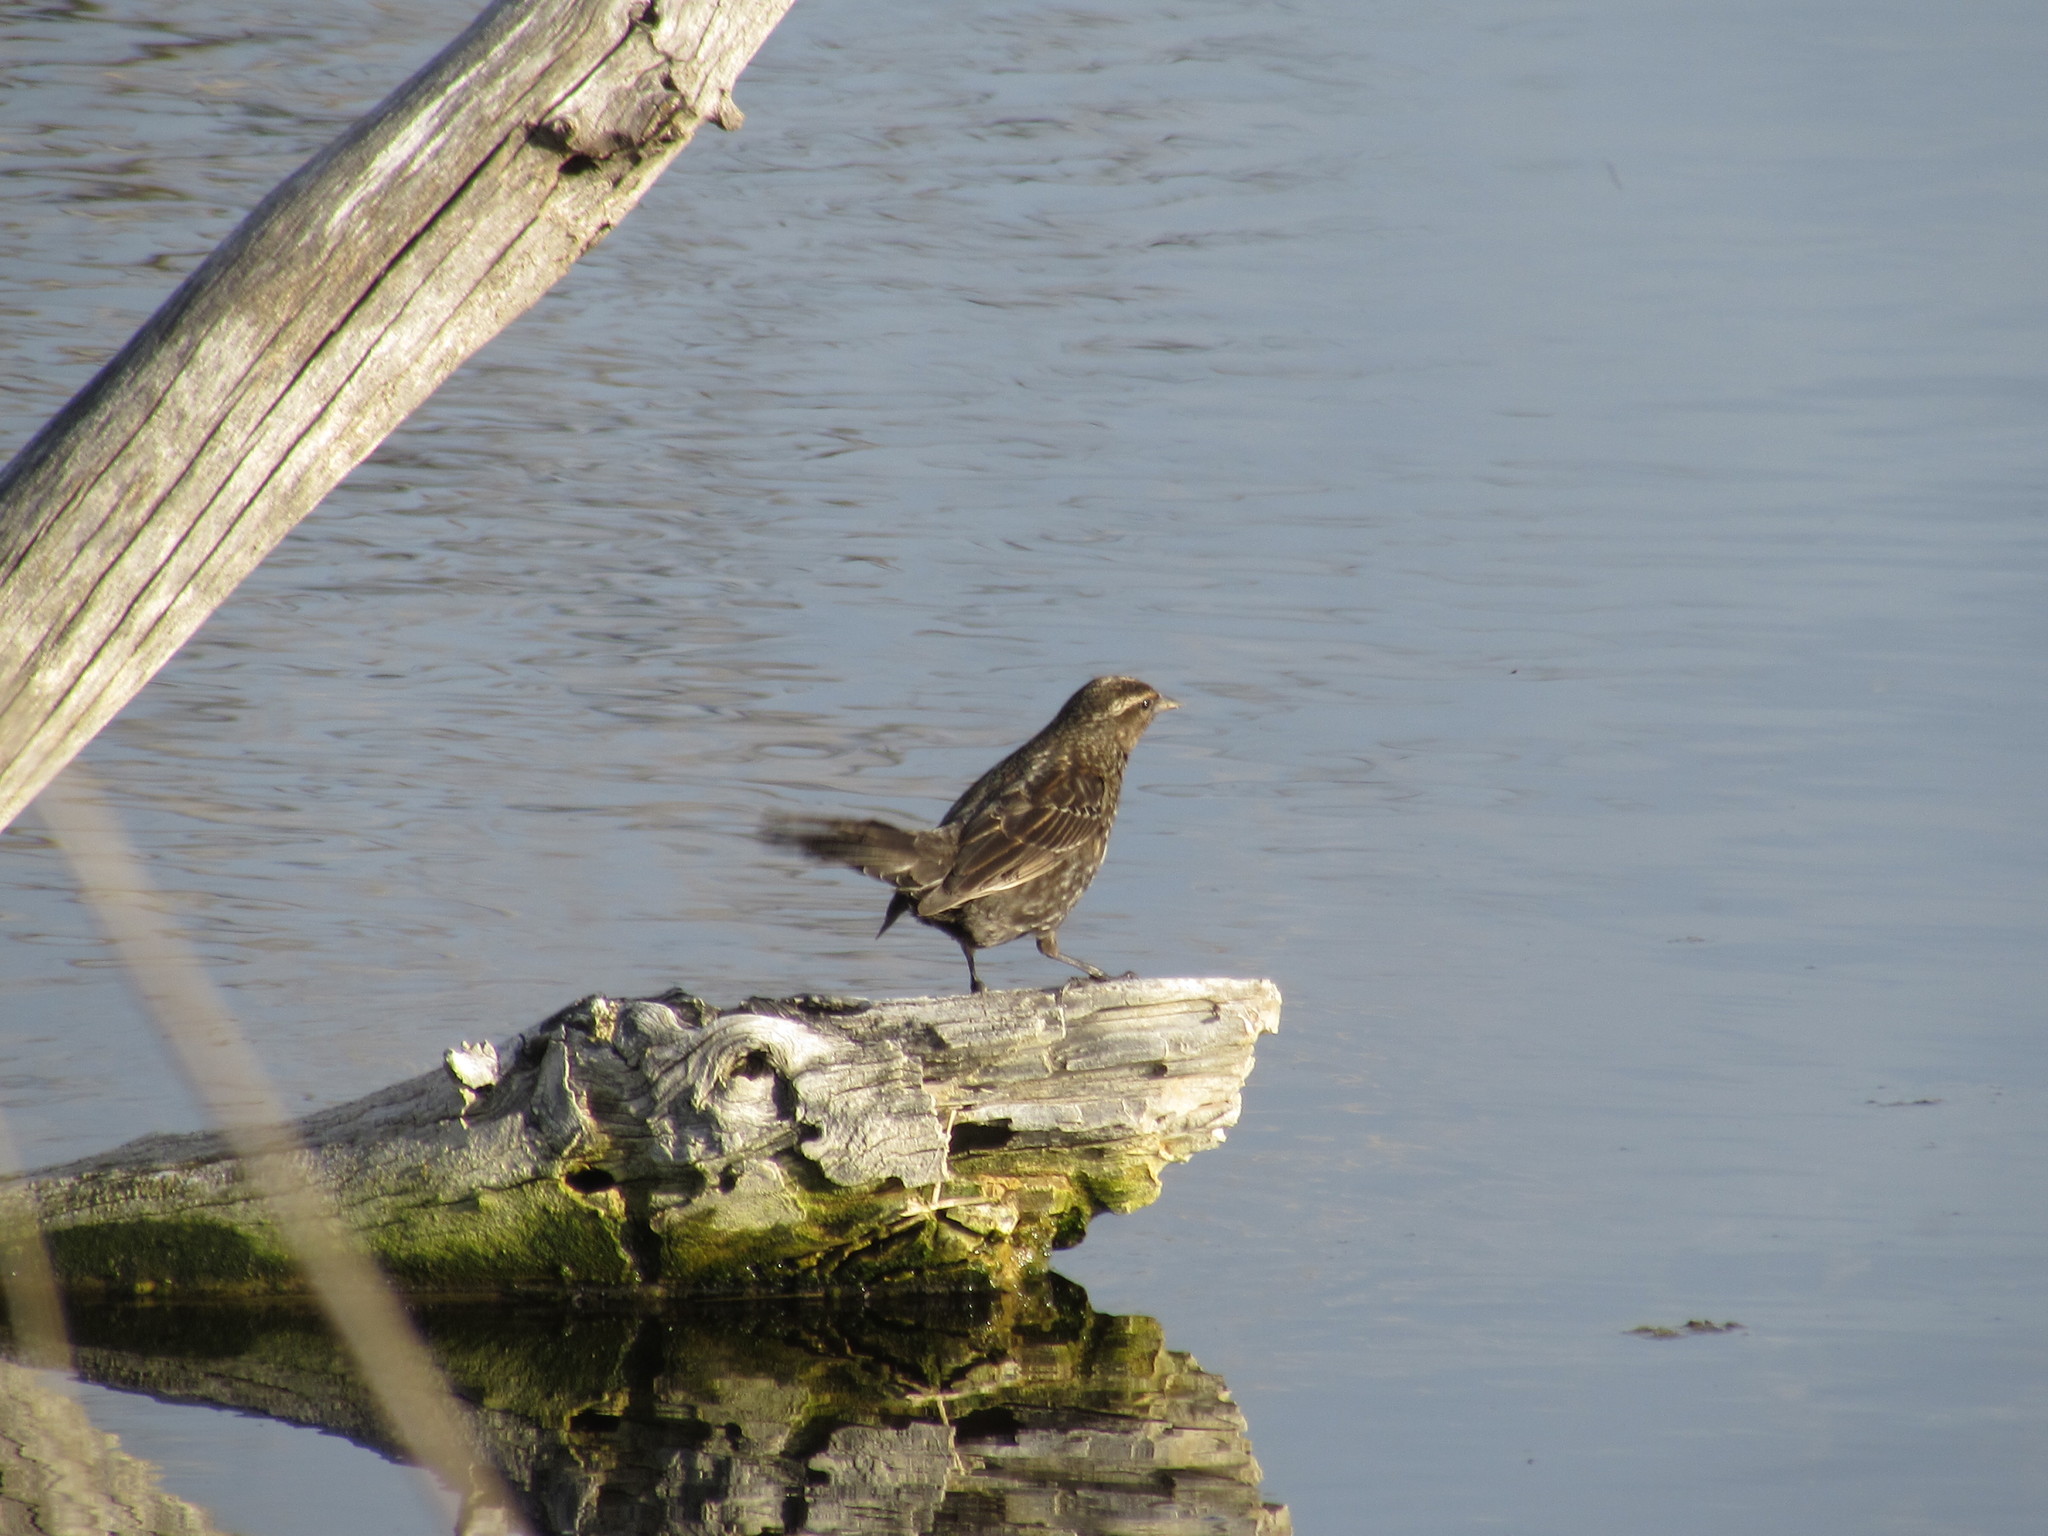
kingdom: Animalia
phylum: Chordata
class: Aves
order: Passeriformes
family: Icteridae
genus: Agelaius
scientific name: Agelaius phoeniceus
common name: Red-winged blackbird
